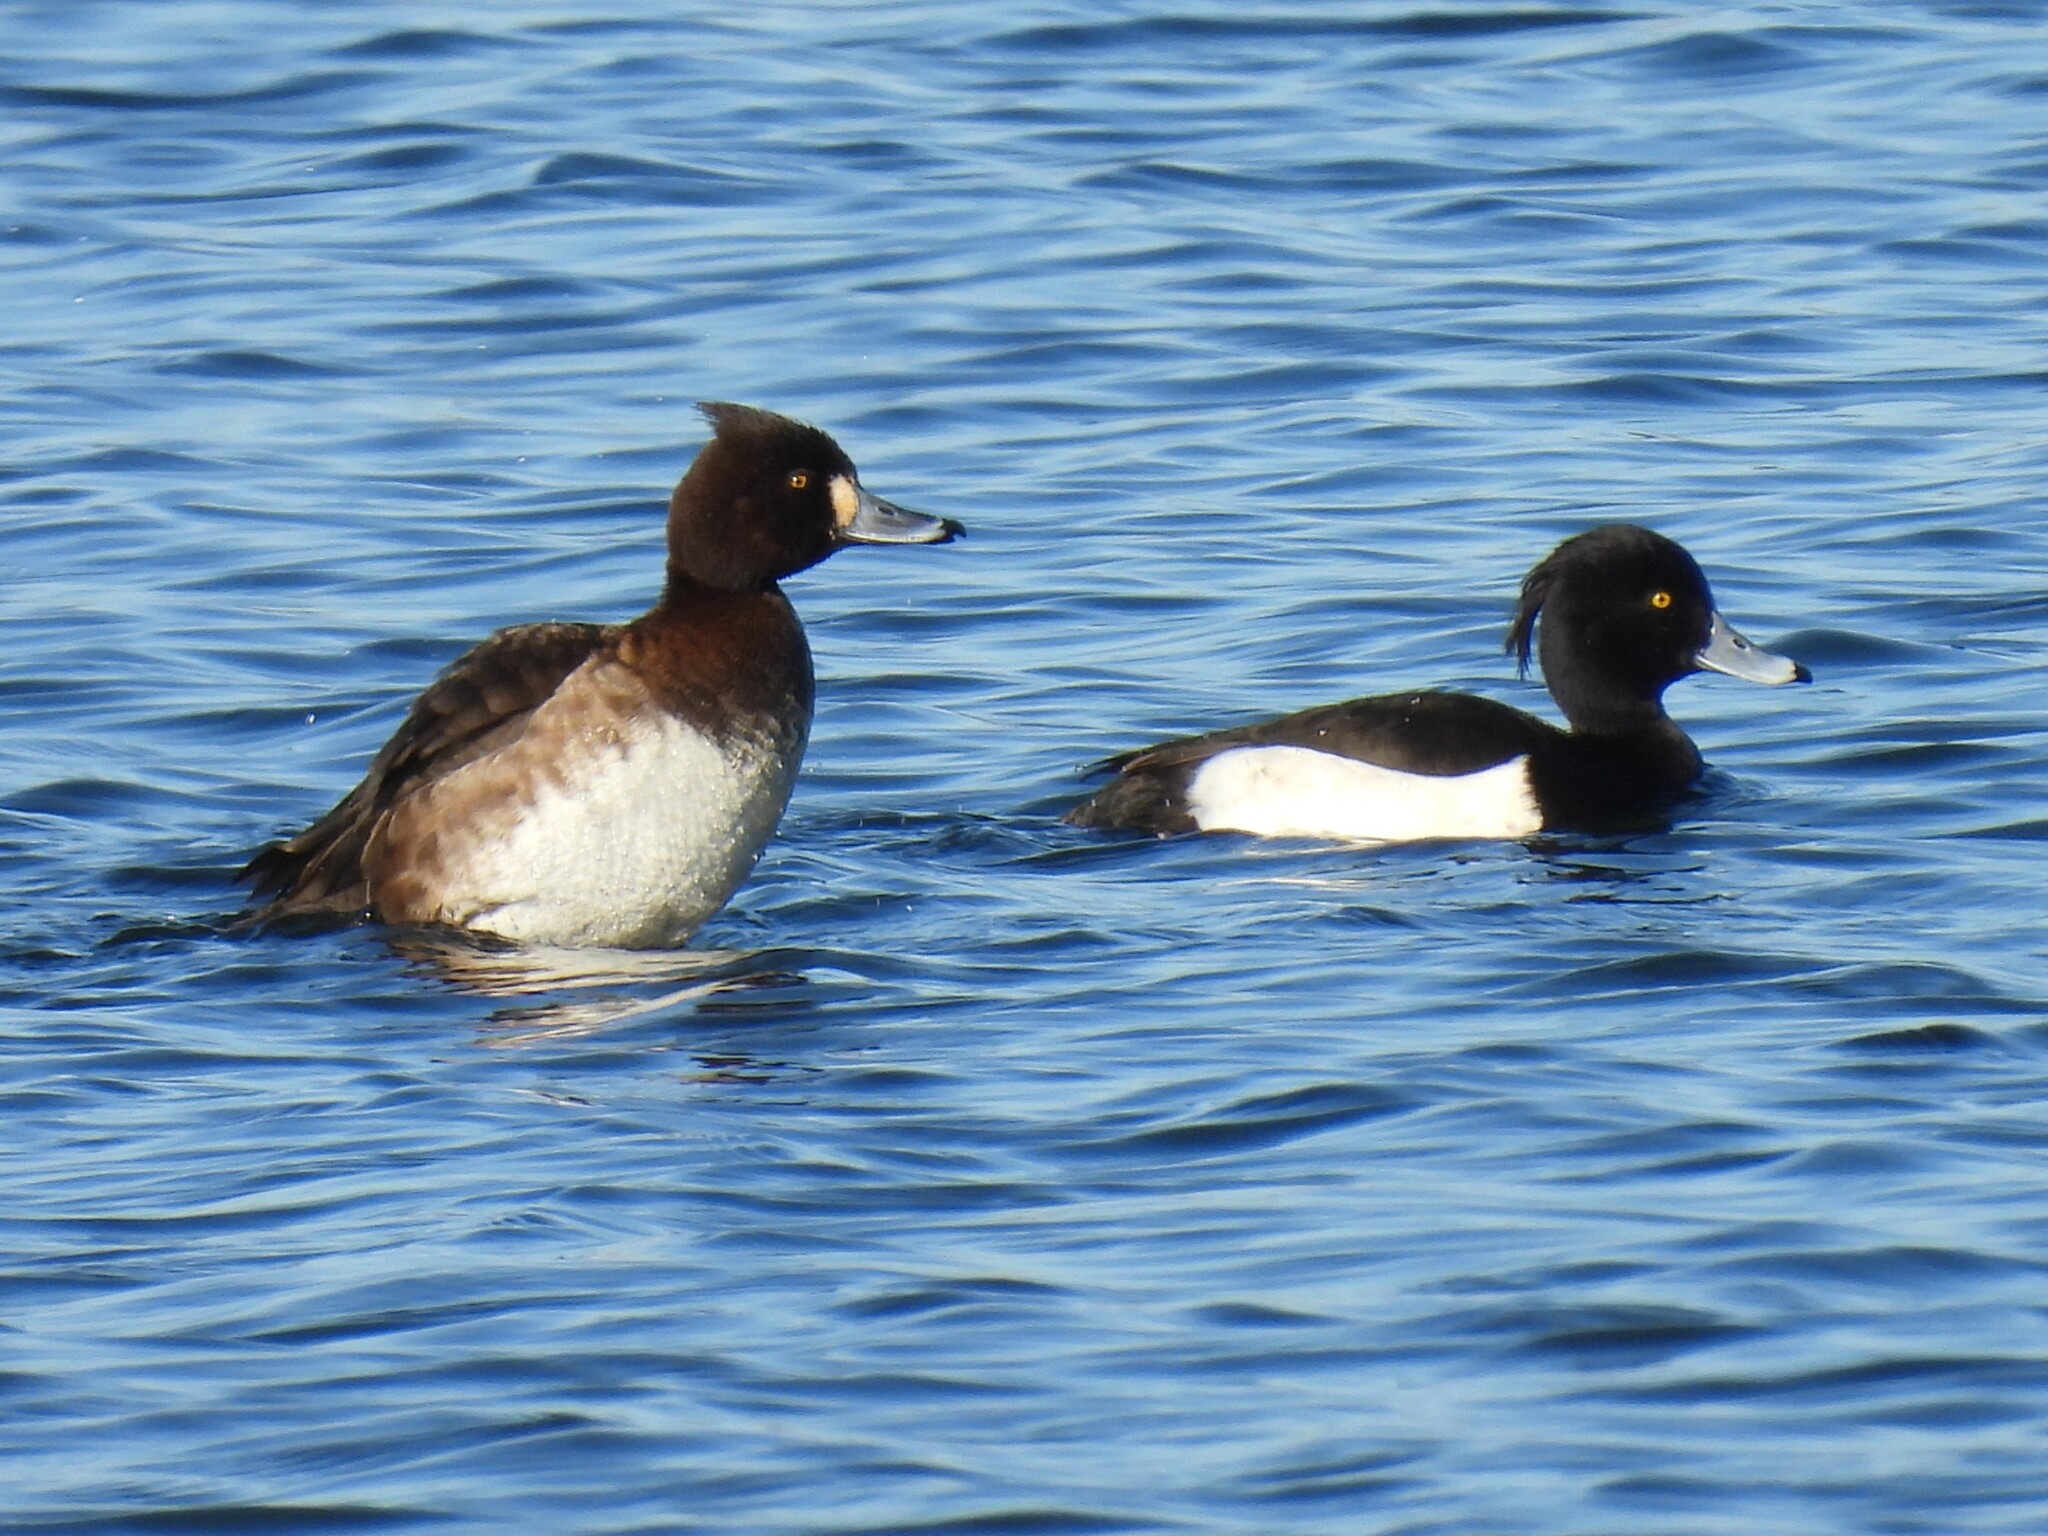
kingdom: Animalia
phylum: Chordata
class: Aves
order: Anseriformes
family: Anatidae
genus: Aythya
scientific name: Aythya fuligula
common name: Tufted duck
